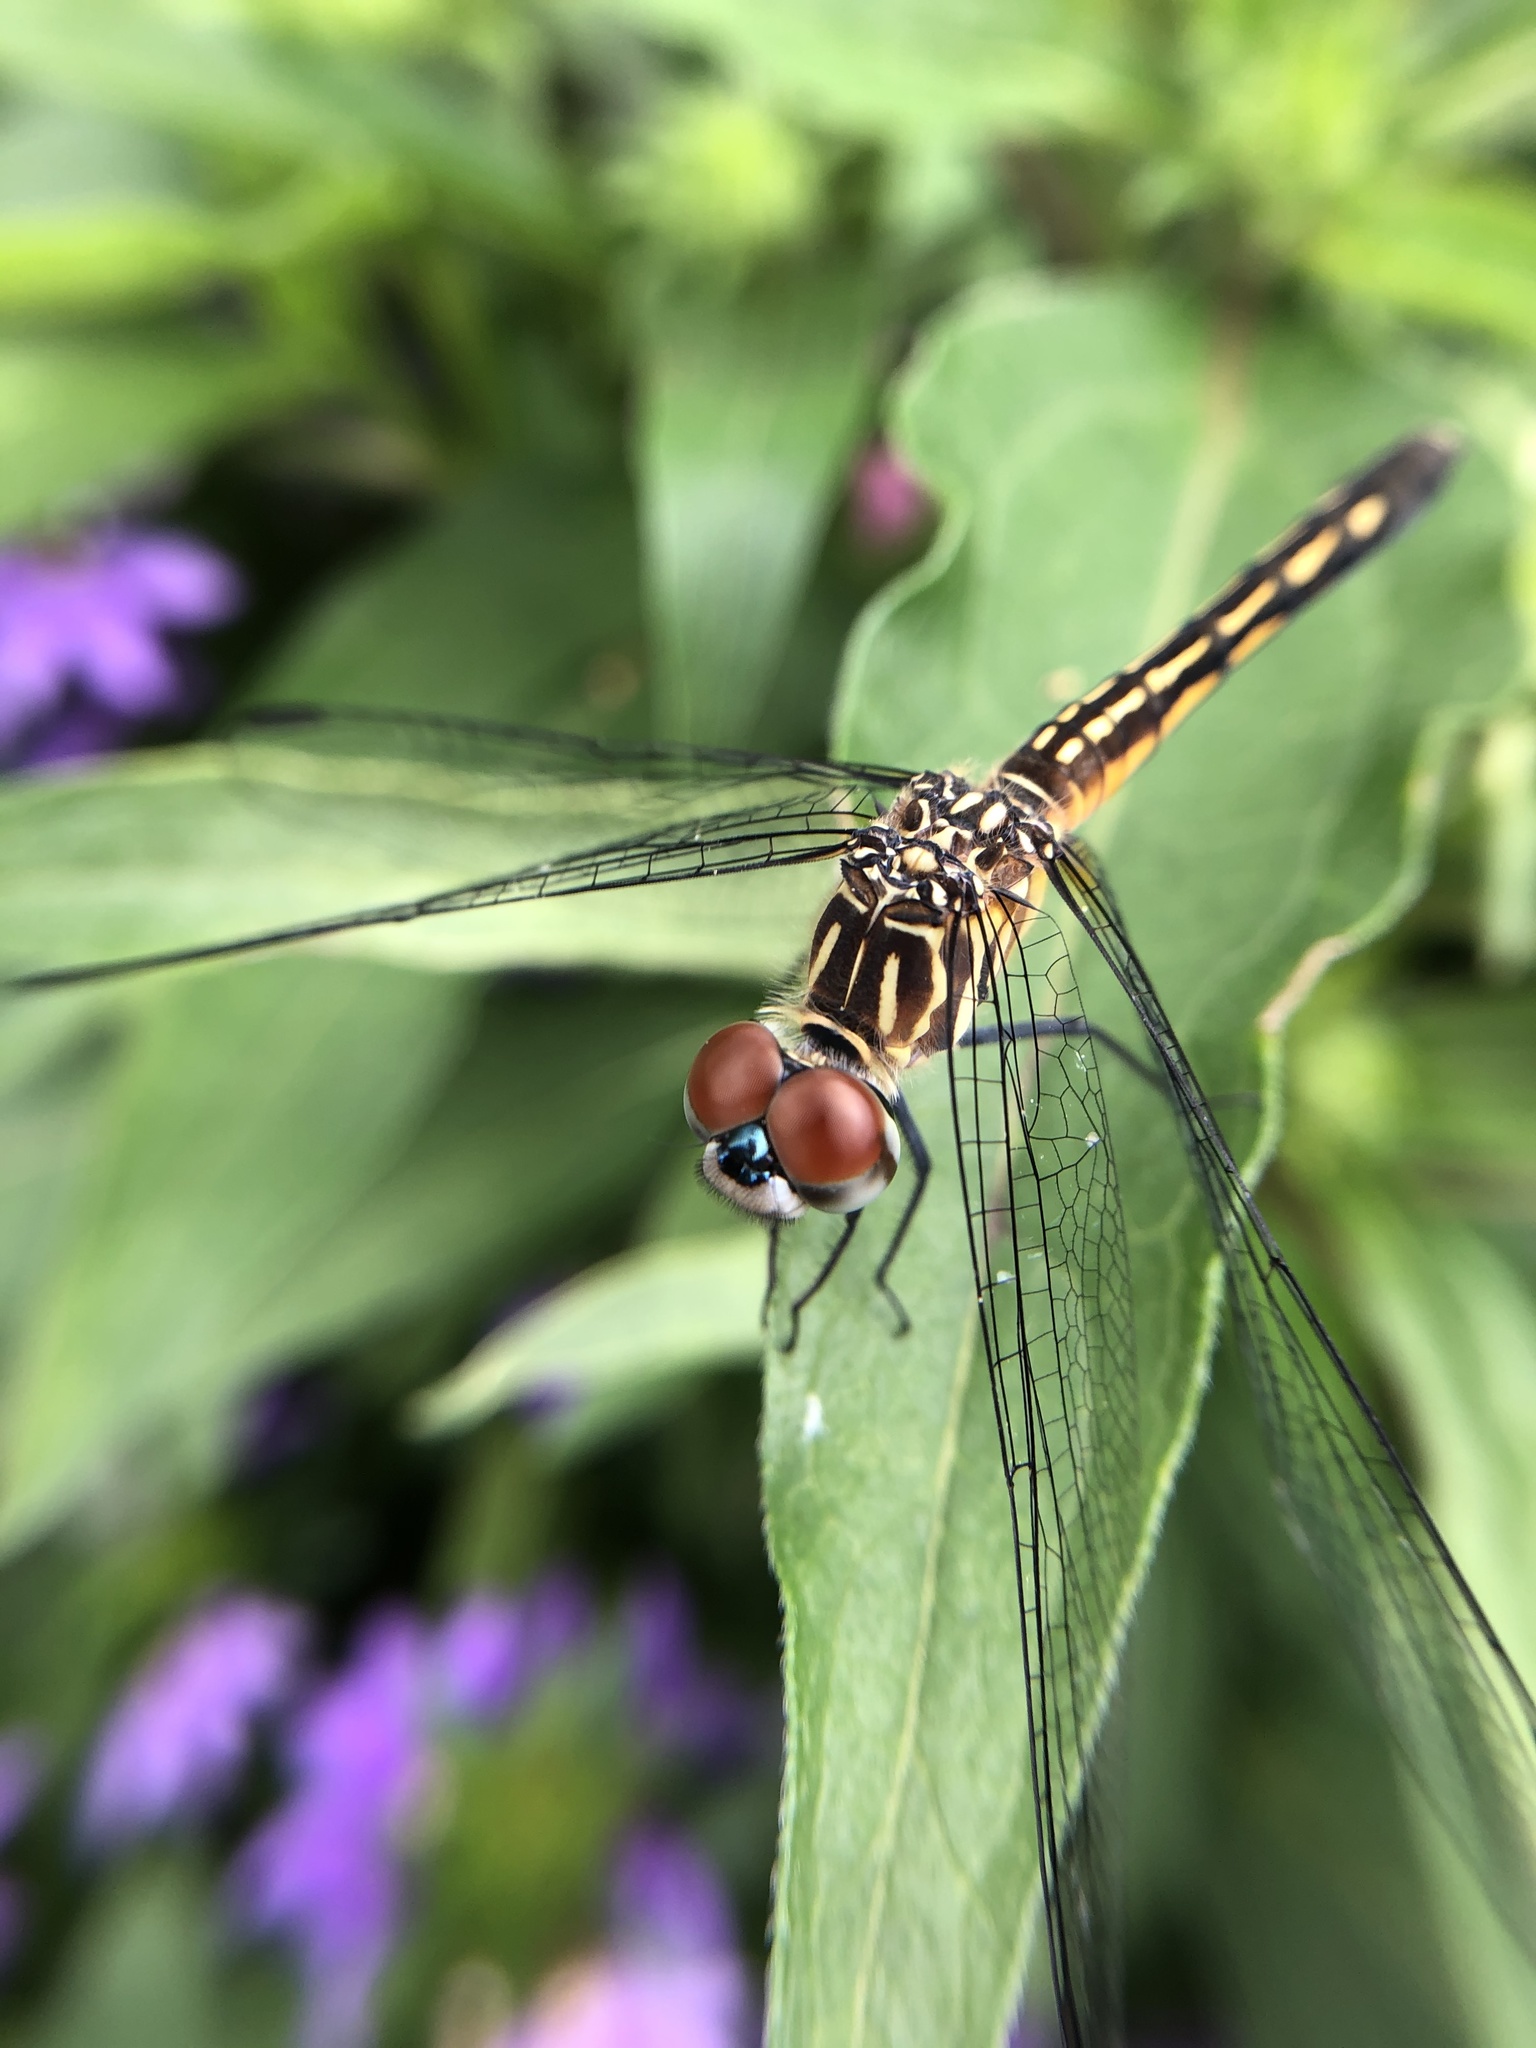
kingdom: Animalia
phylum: Arthropoda
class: Insecta
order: Odonata
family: Libellulidae
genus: Pachydiplax
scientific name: Pachydiplax longipennis
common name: Blue dasher
